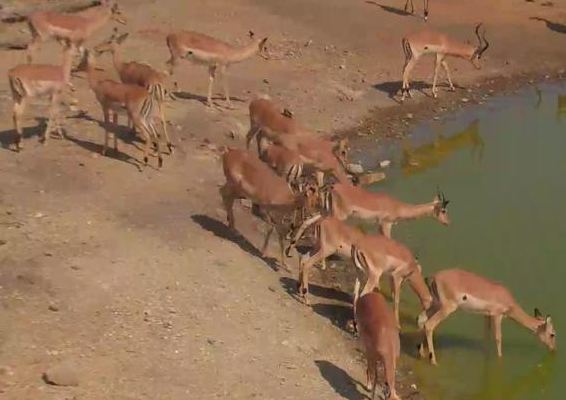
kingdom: Animalia
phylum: Chordata
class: Mammalia
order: Artiodactyla
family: Bovidae
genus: Aepyceros
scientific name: Aepyceros melampus
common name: Impala
